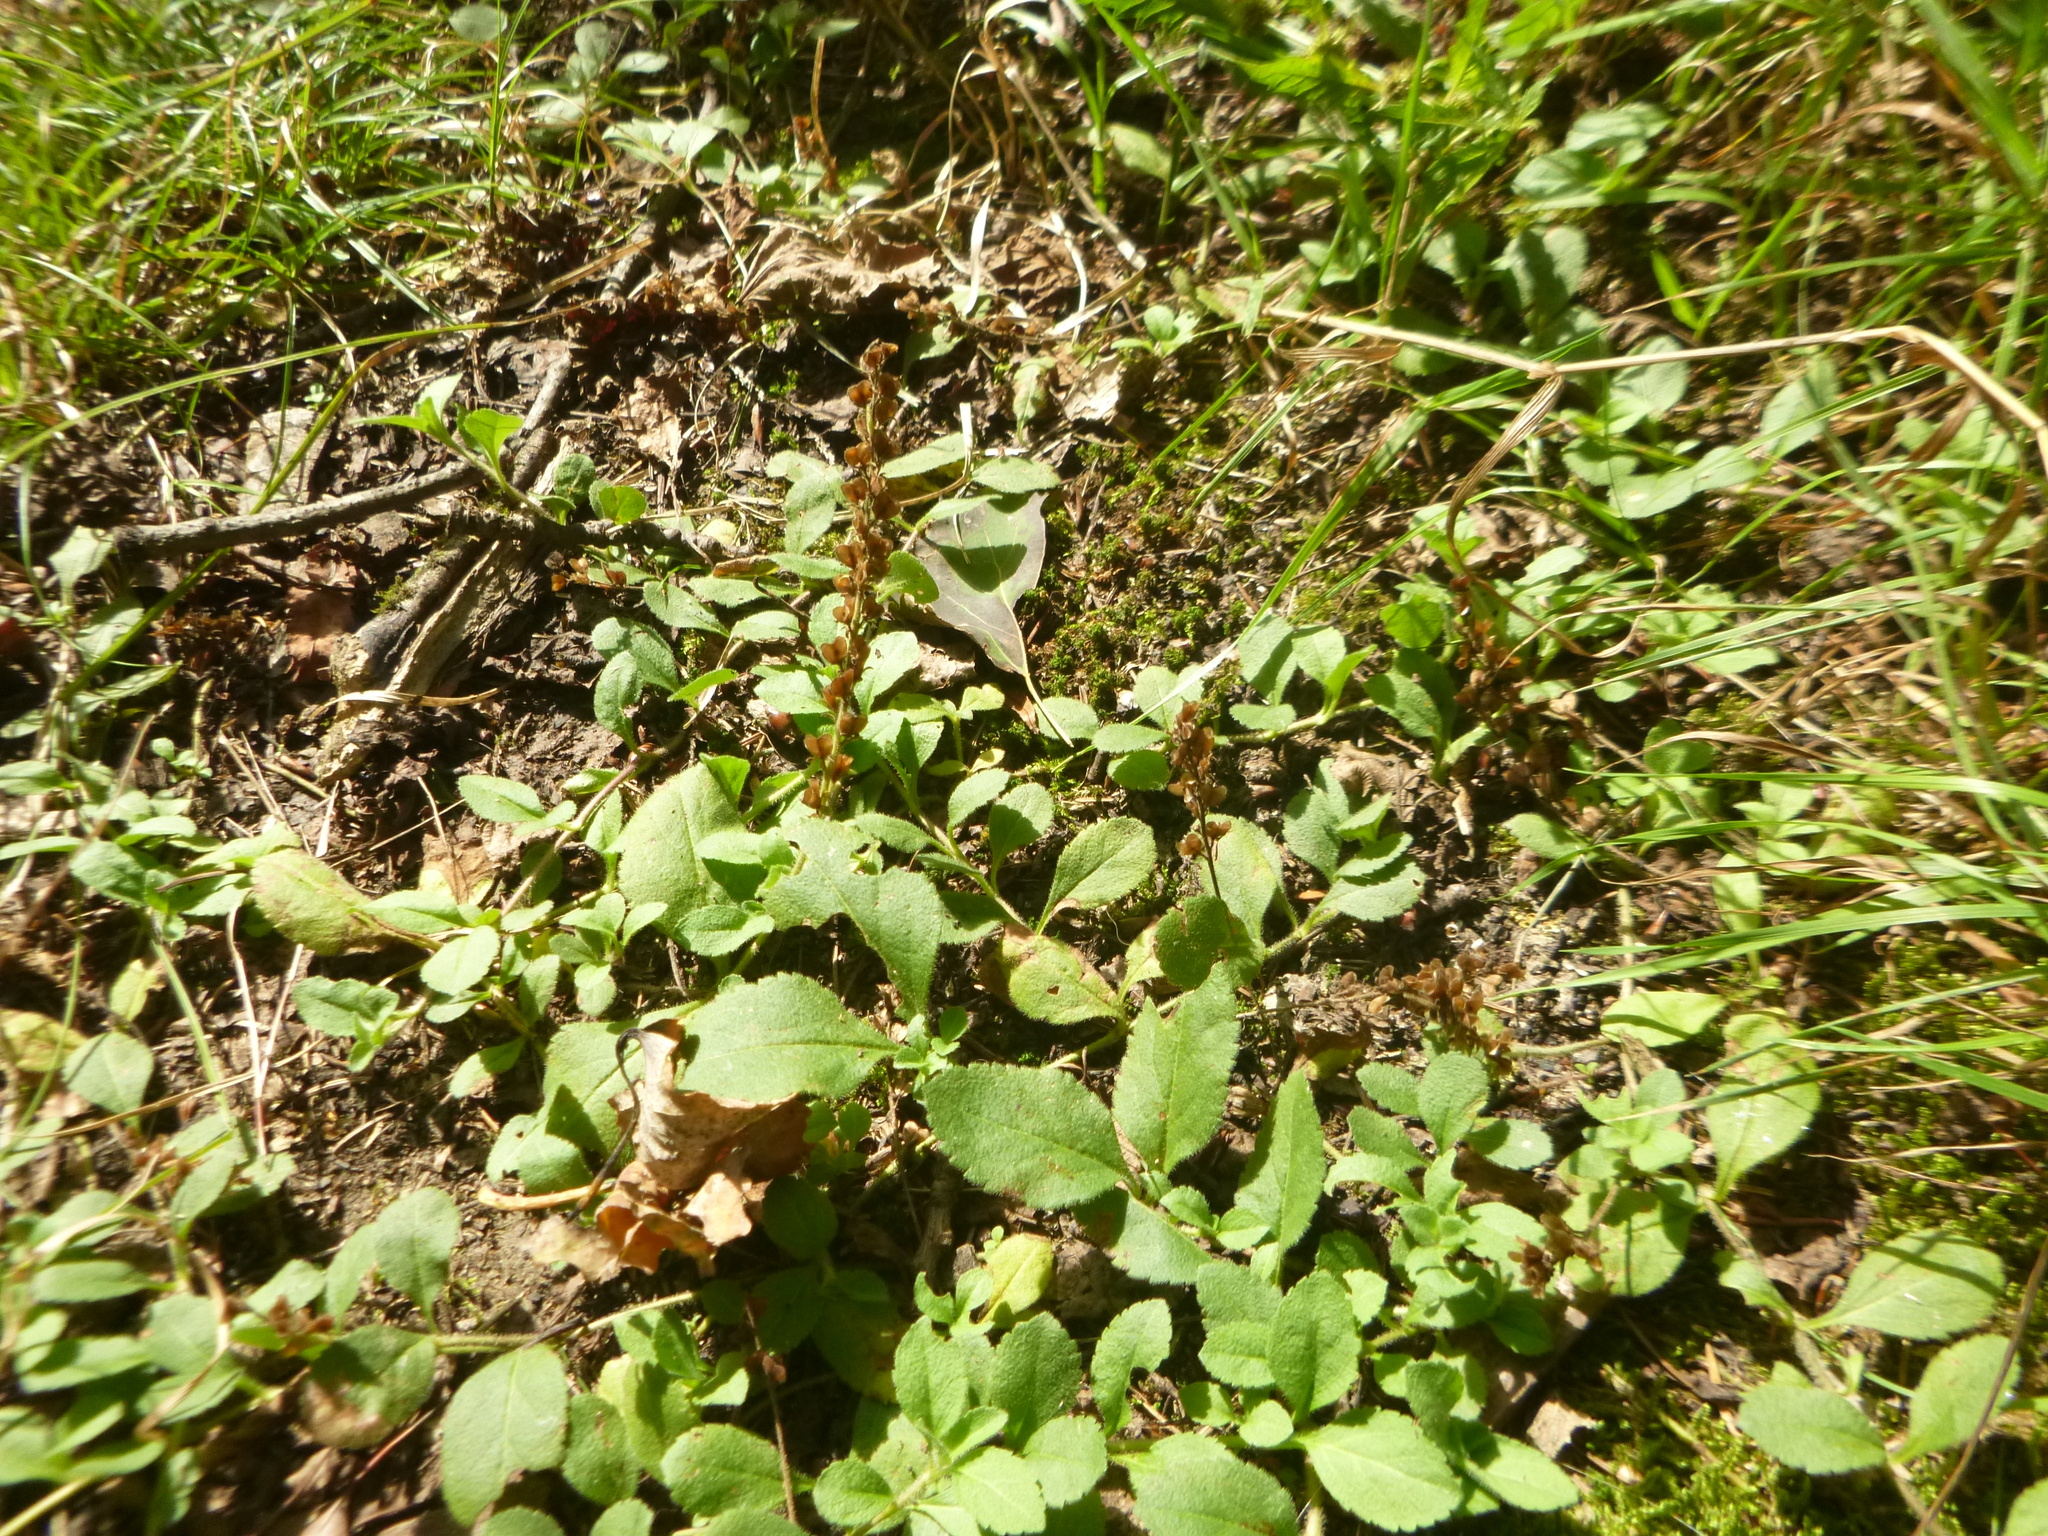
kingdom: Plantae
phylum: Tracheophyta
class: Magnoliopsida
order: Lamiales
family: Plantaginaceae
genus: Veronica
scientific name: Veronica officinalis
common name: Common speedwell
